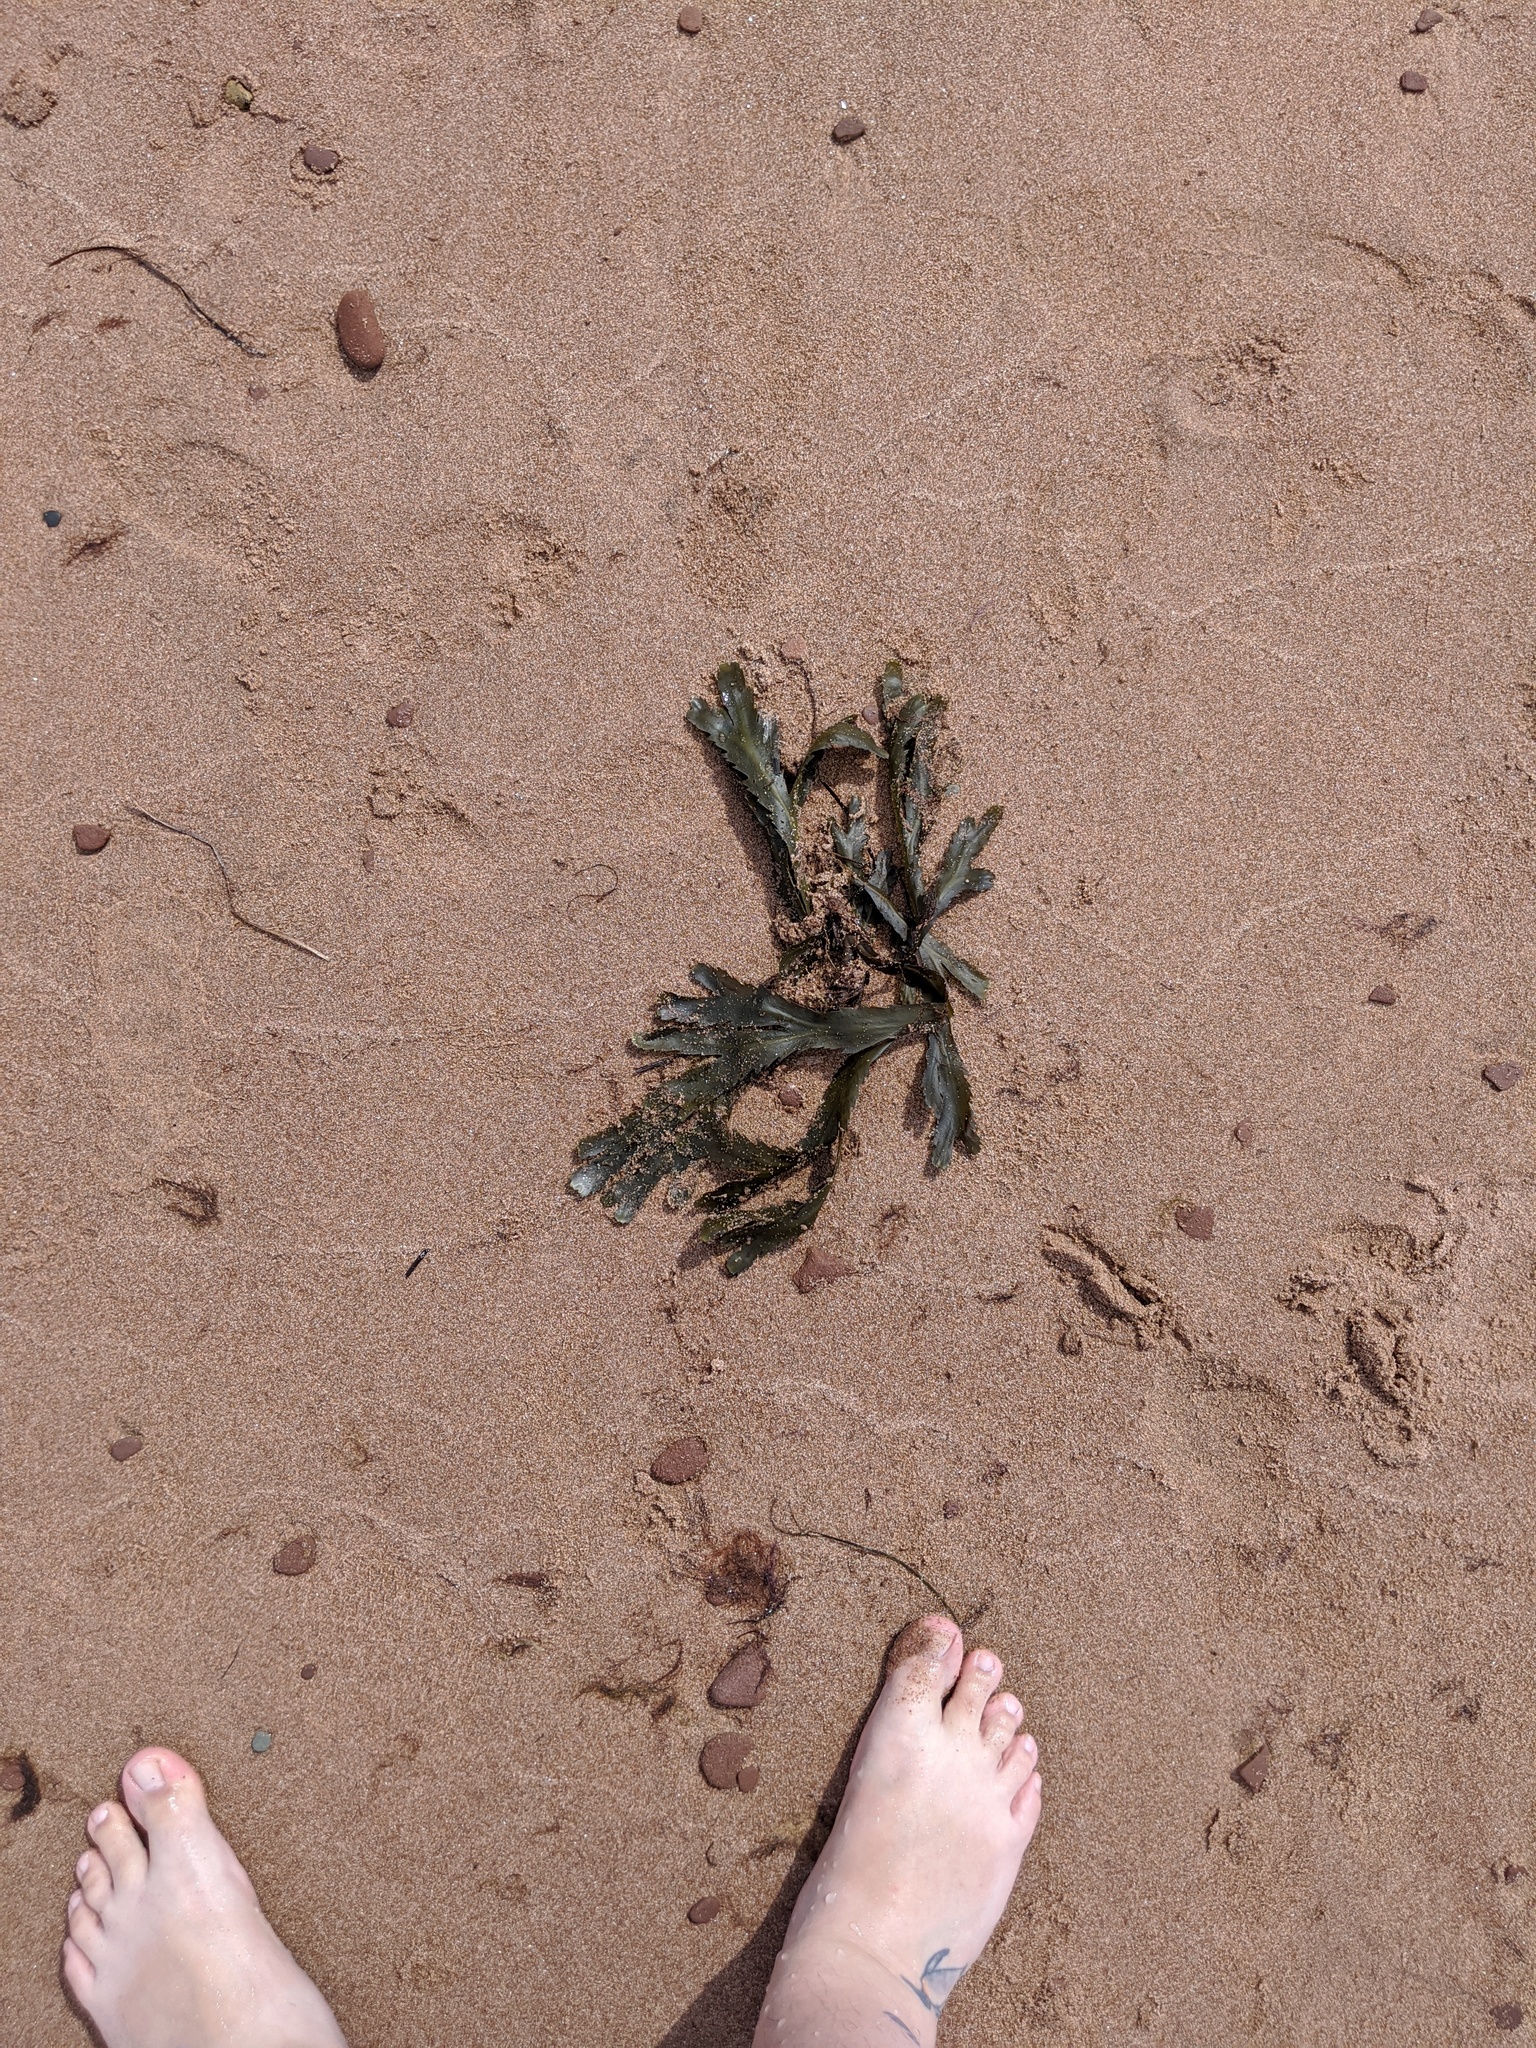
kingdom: Chromista
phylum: Ochrophyta
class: Phaeophyceae
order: Fucales
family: Fucaceae
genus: Fucus
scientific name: Fucus serratus
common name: Toothed wrack
